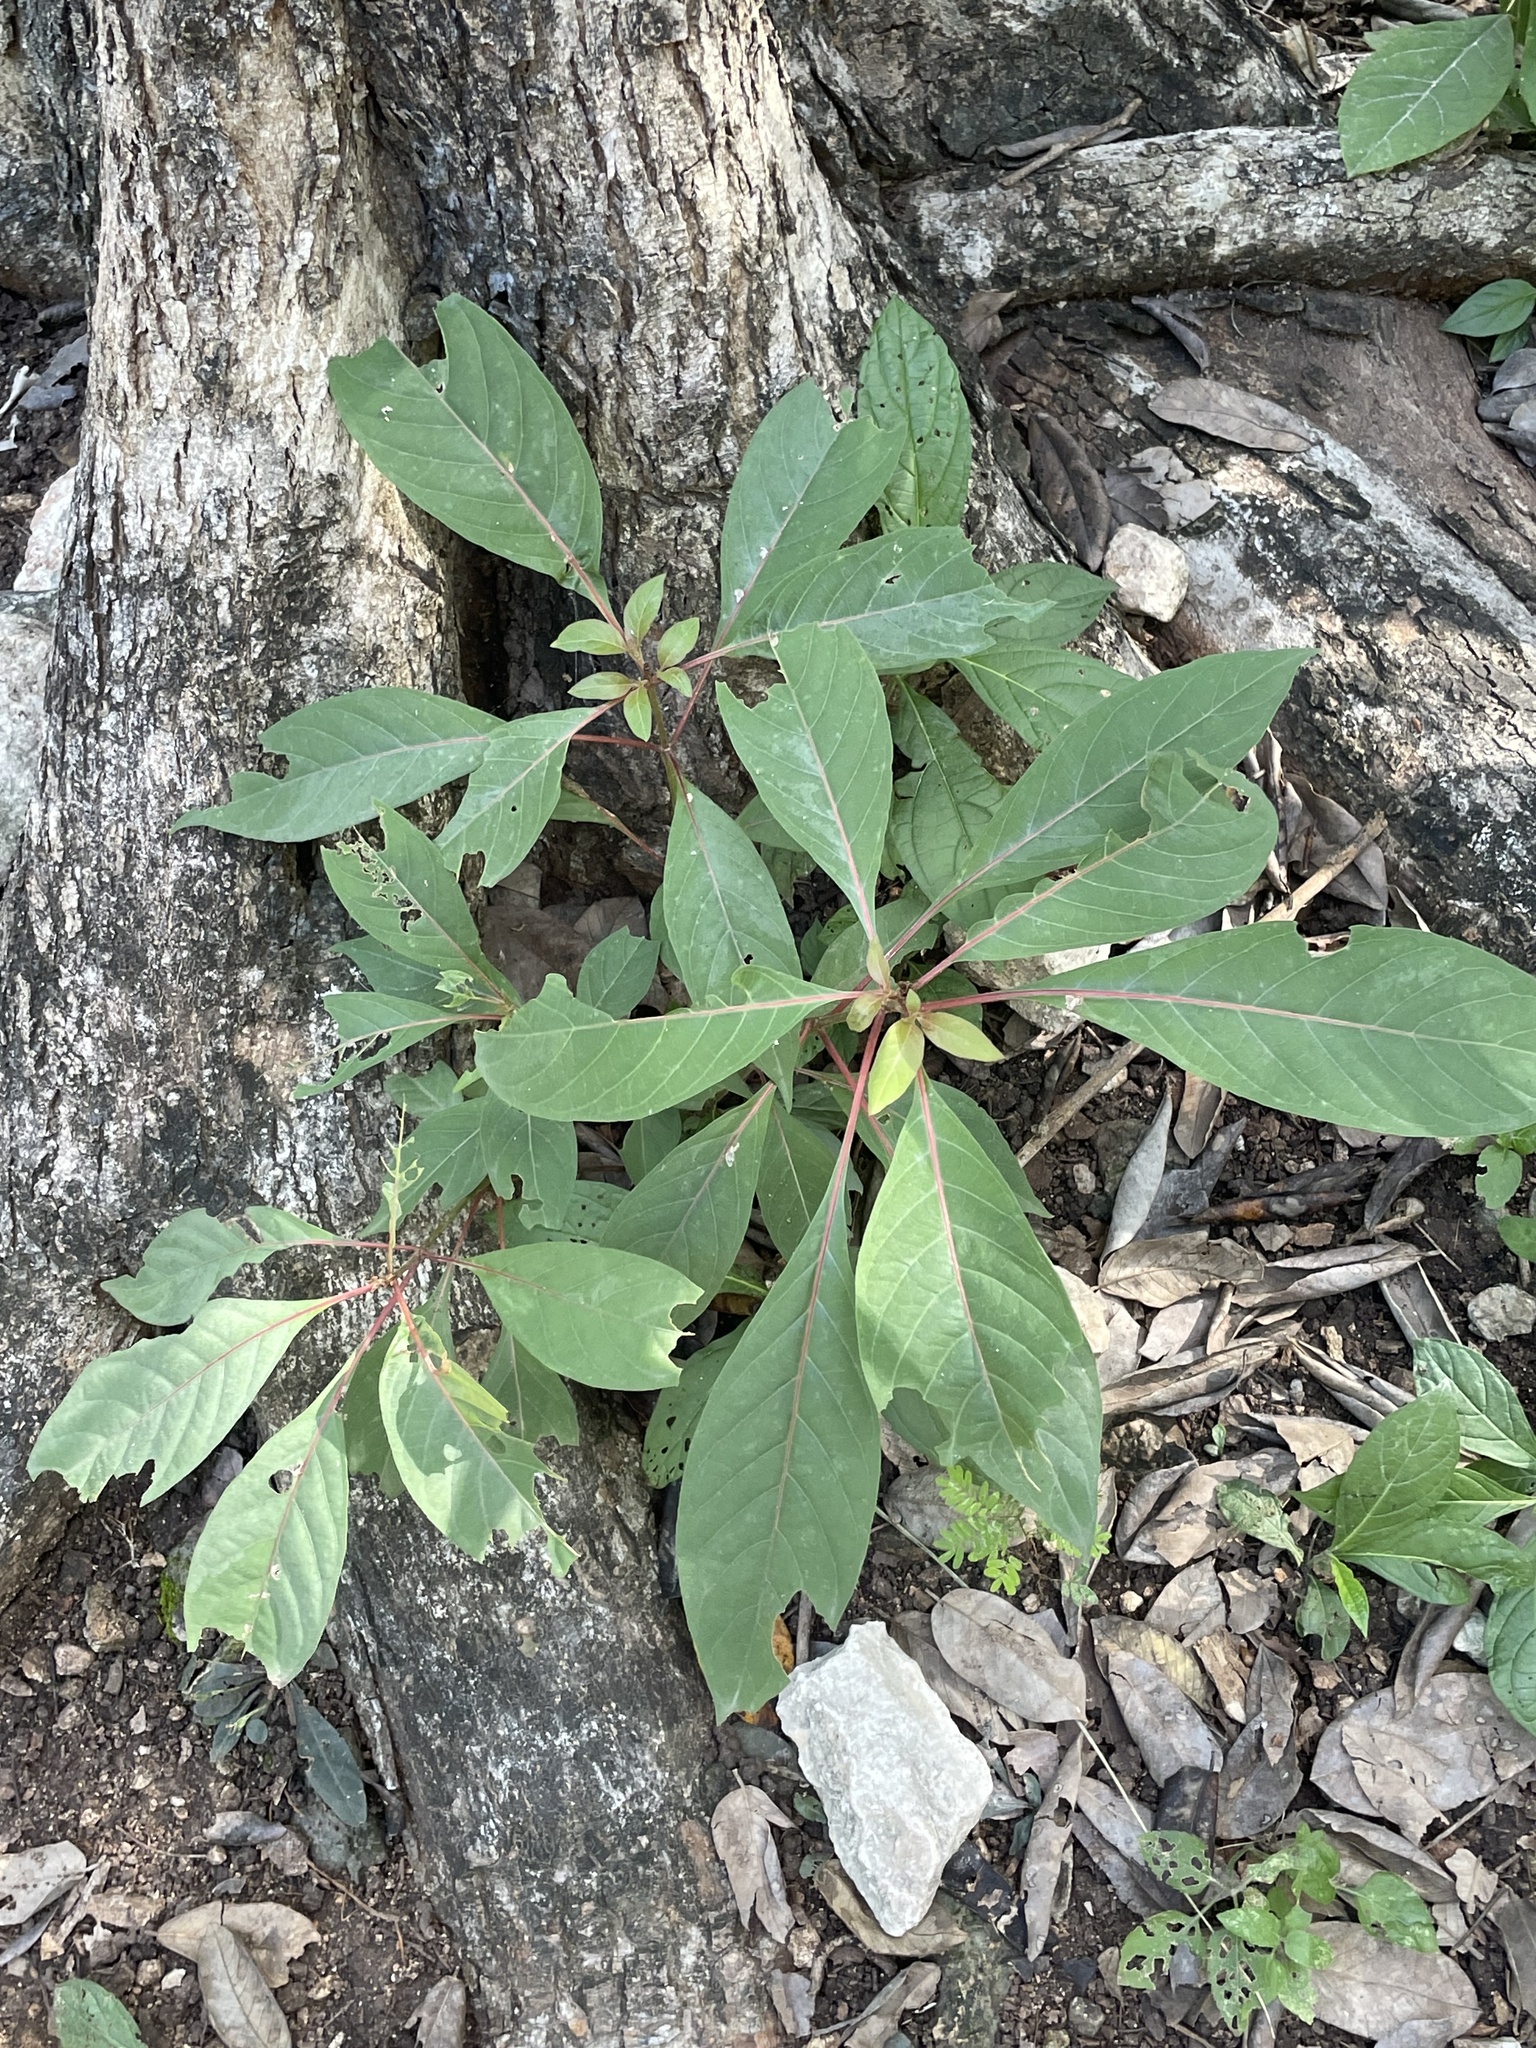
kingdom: Plantae
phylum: Tracheophyta
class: Magnoliopsida
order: Gentianales
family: Rubiaceae
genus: Hamelia
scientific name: Hamelia patens
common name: Redhead
